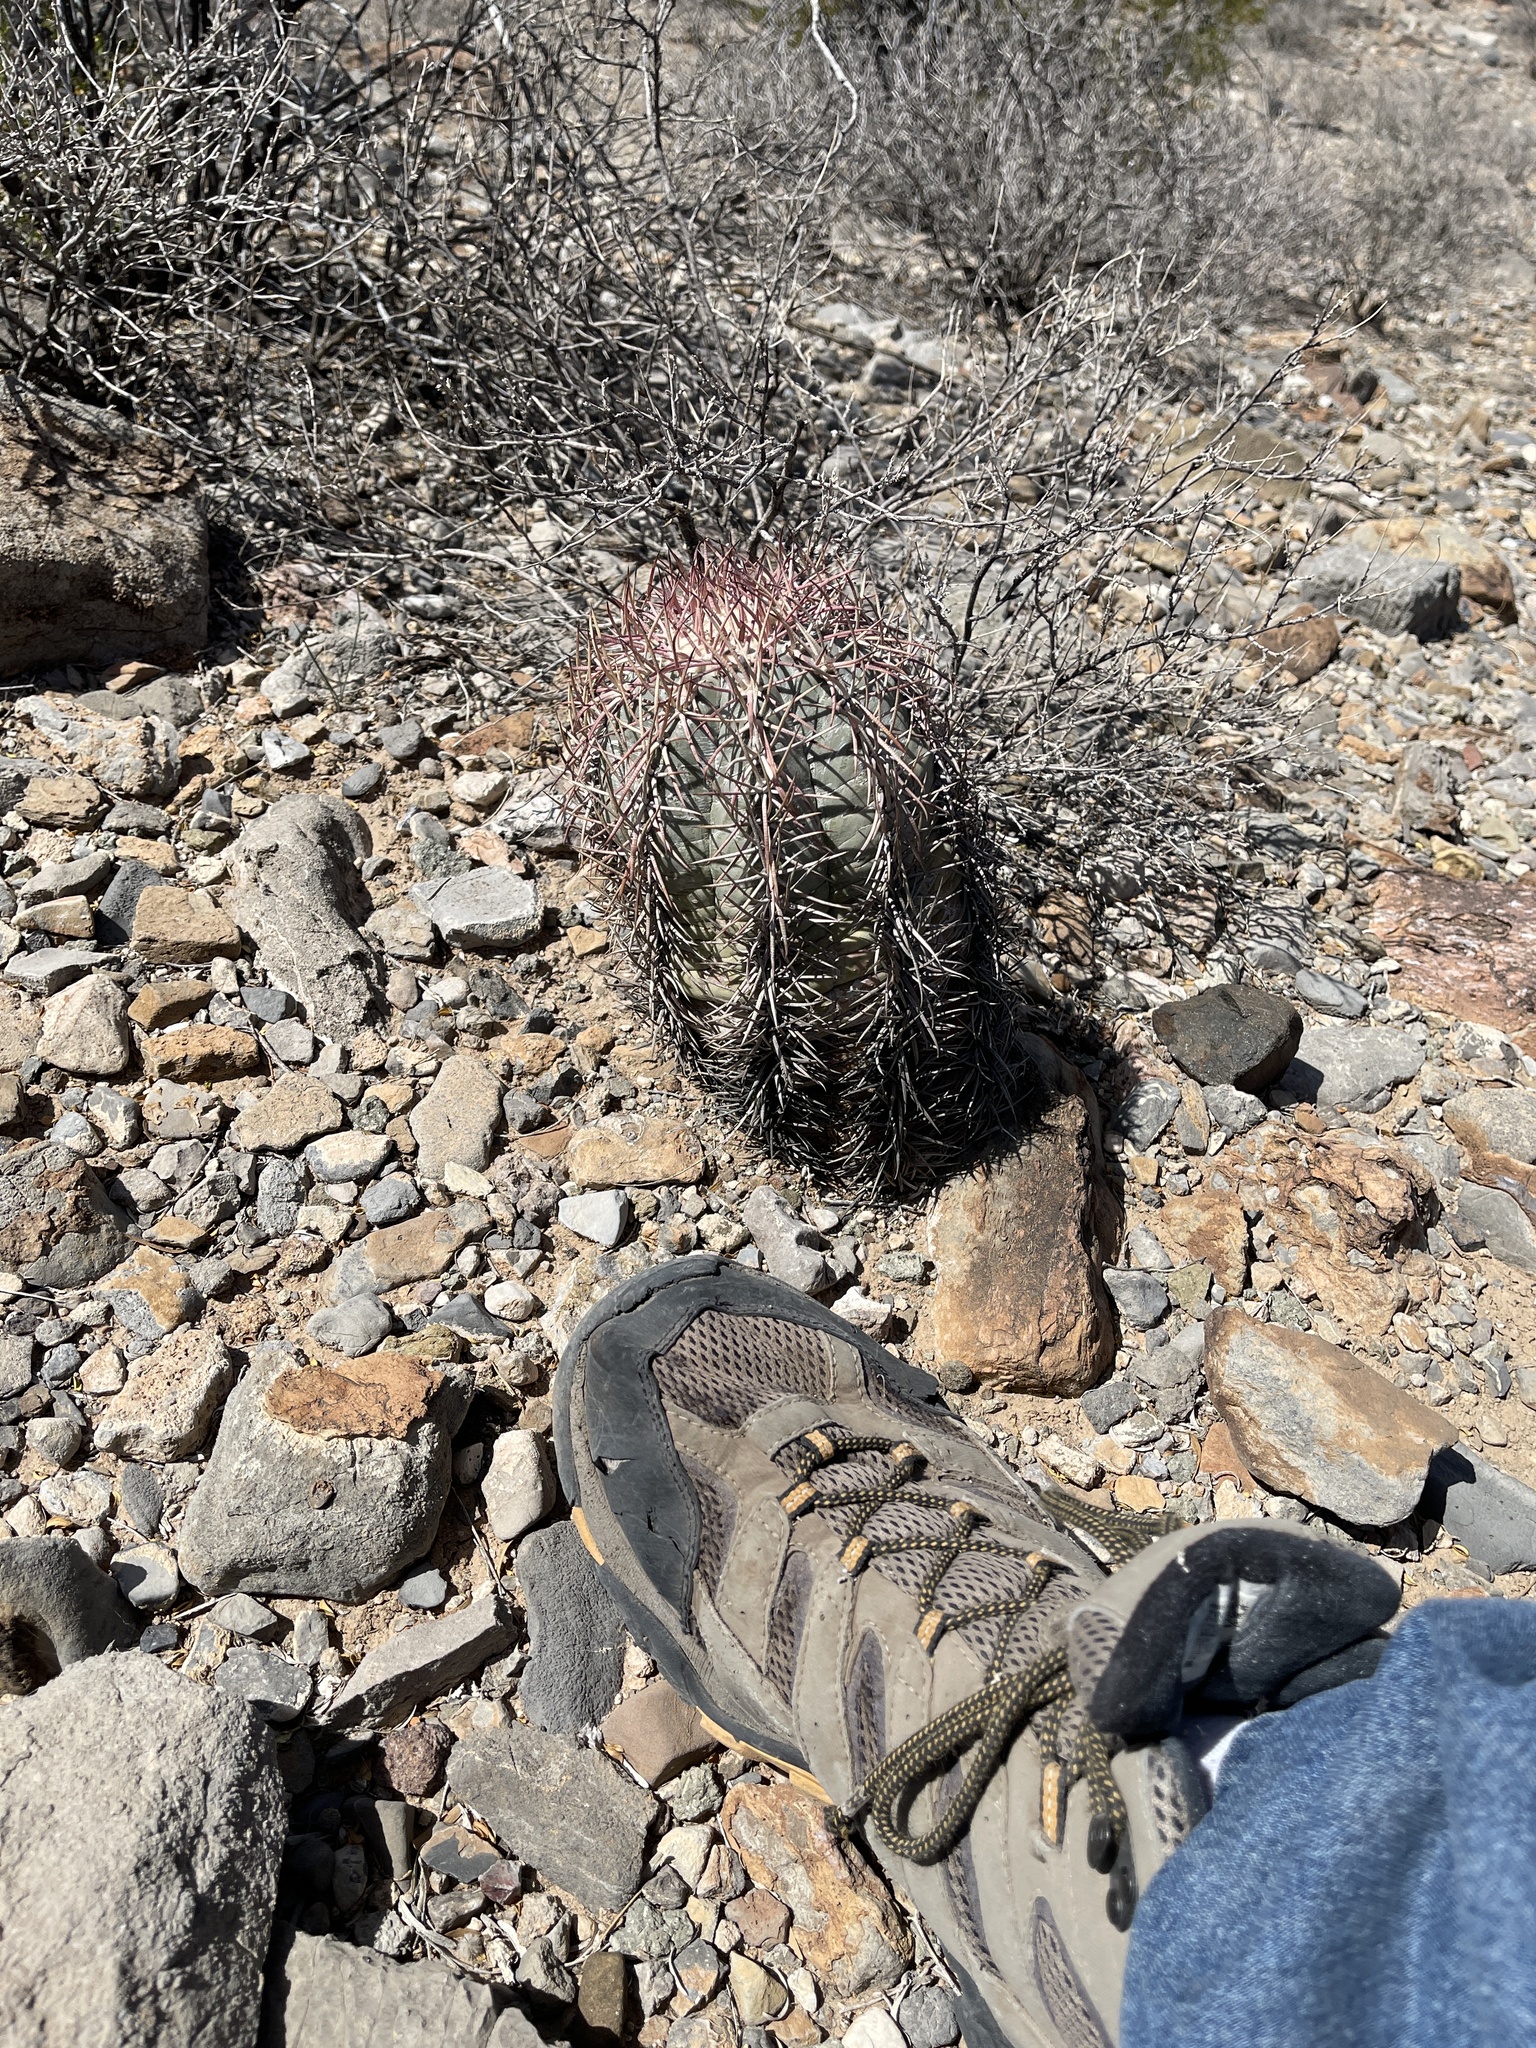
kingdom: Plantae
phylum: Tracheophyta
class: Magnoliopsida
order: Caryophyllales
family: Cactaceae
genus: Echinocactus
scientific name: Echinocactus horizonthalonius
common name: Devilshead
